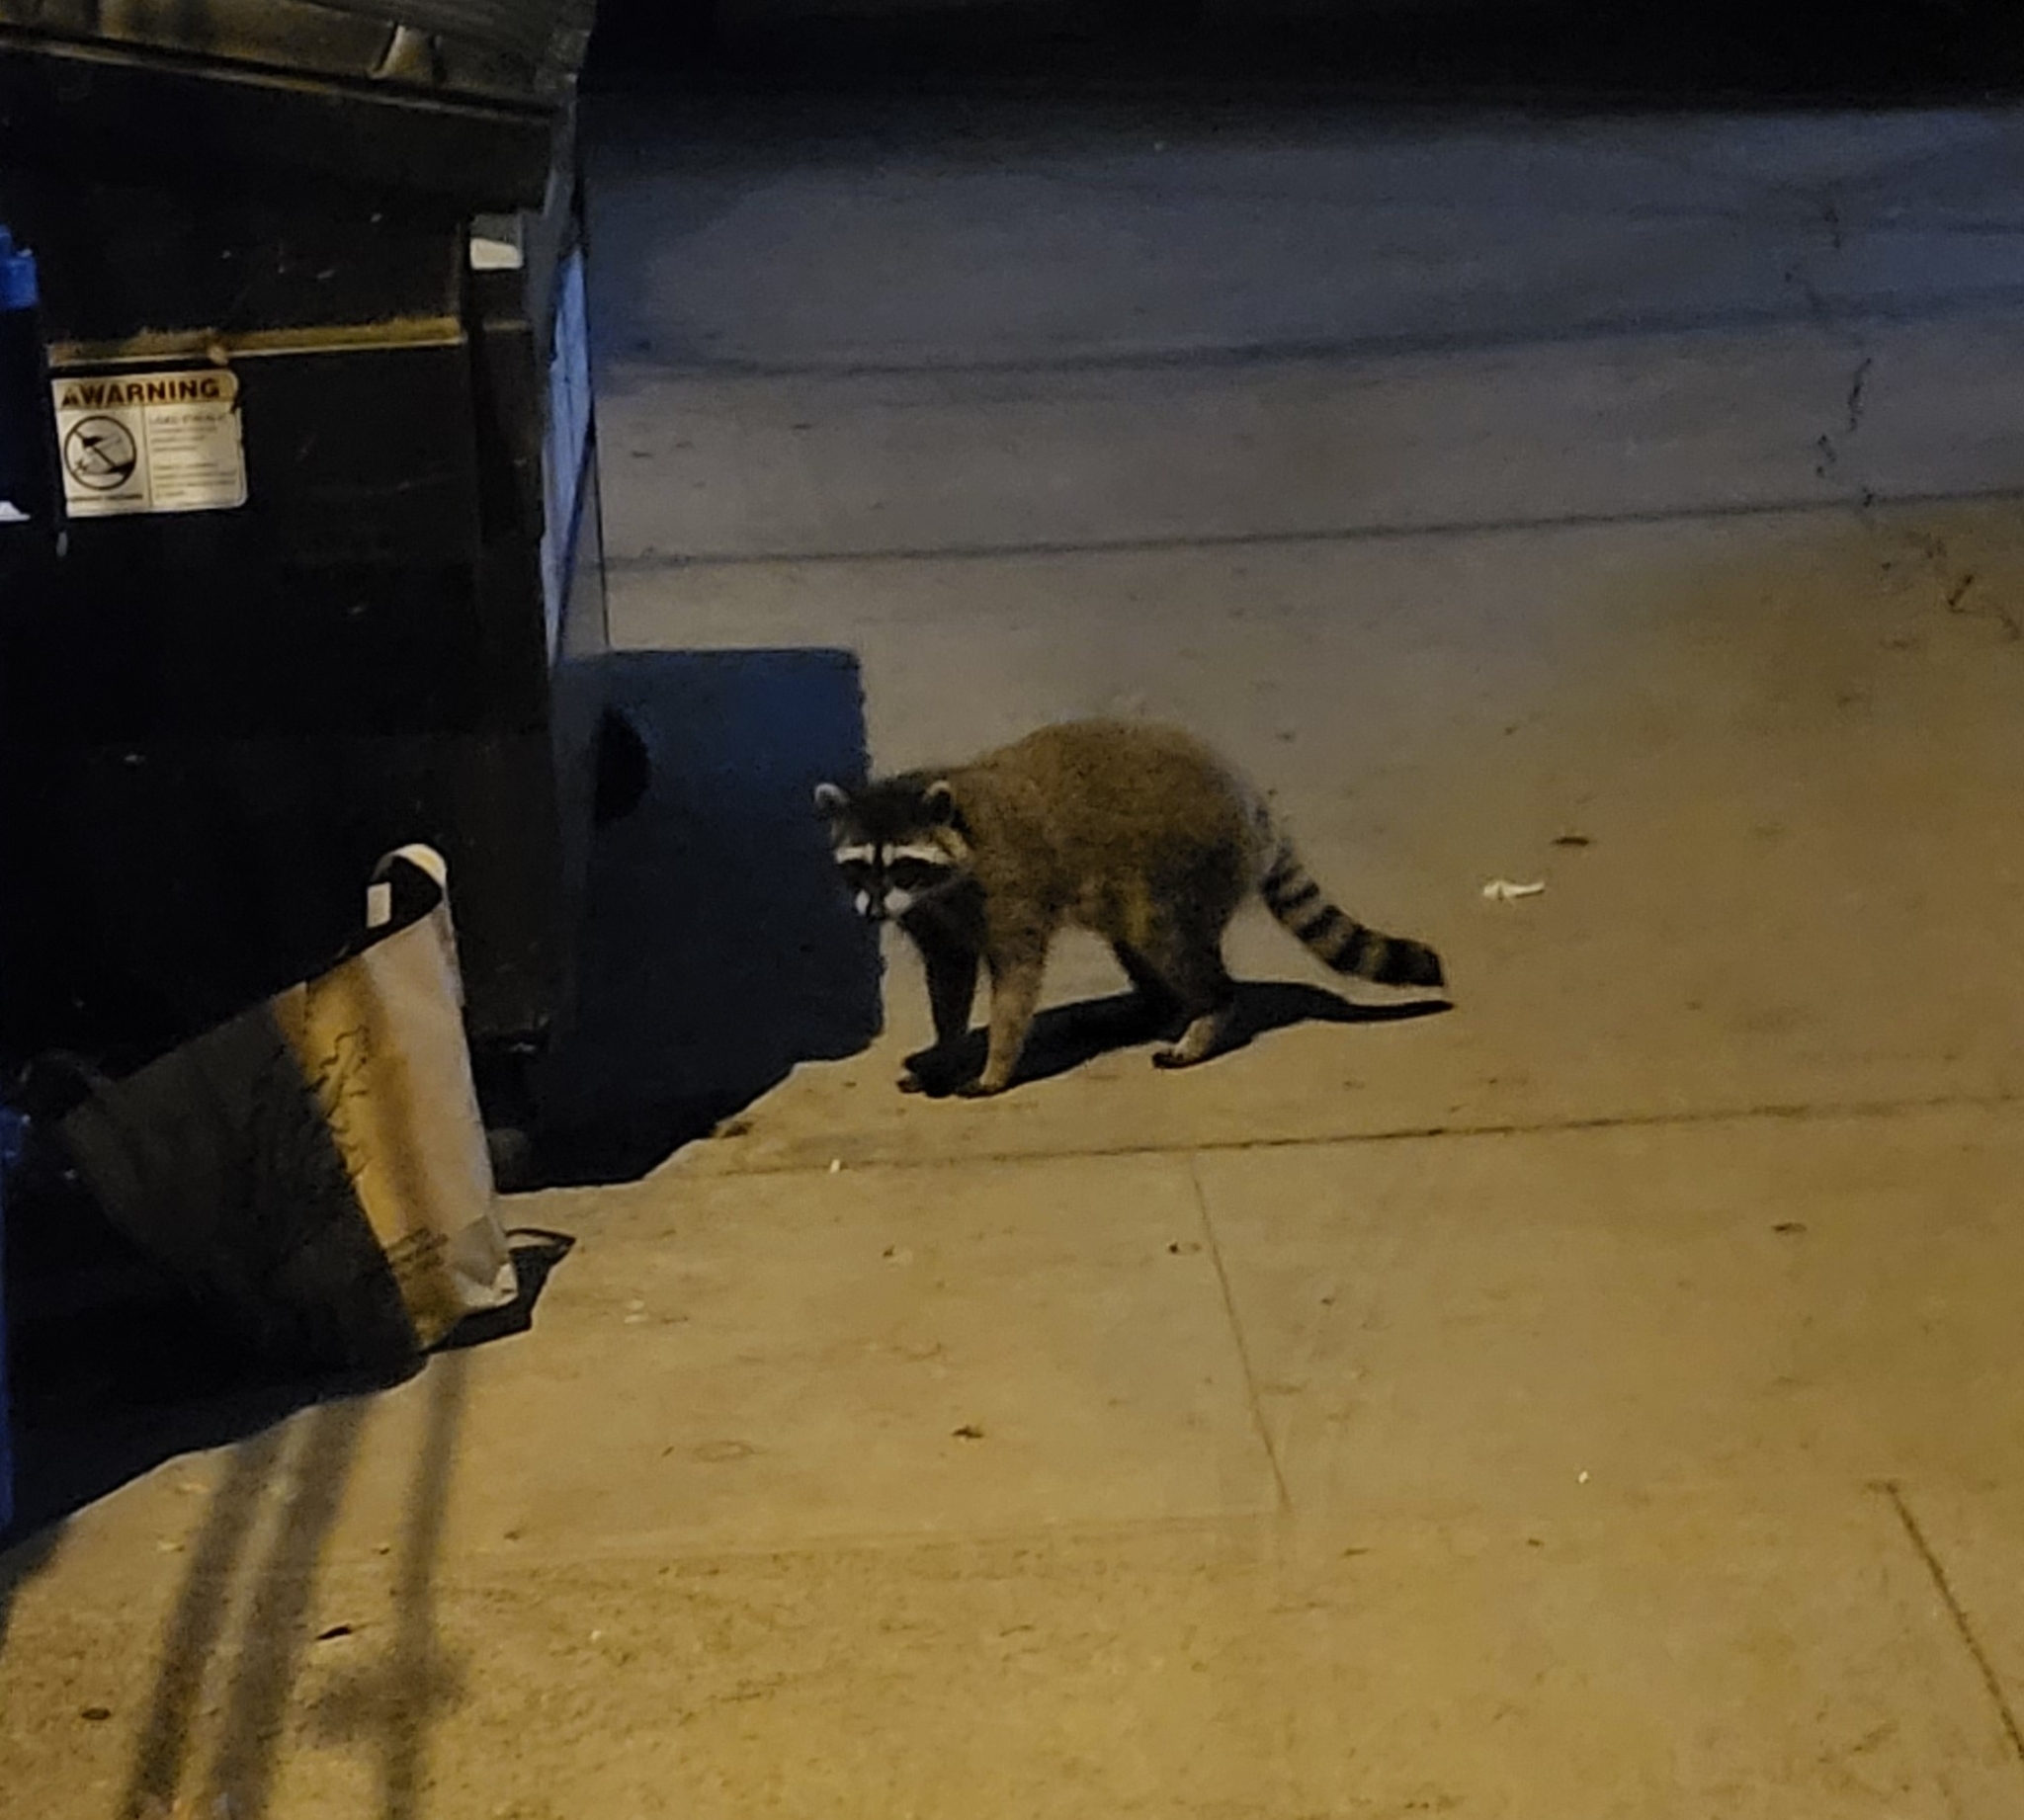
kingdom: Animalia
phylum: Chordata
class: Mammalia
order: Carnivora
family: Procyonidae
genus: Procyon
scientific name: Procyon lotor
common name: Raccoon
